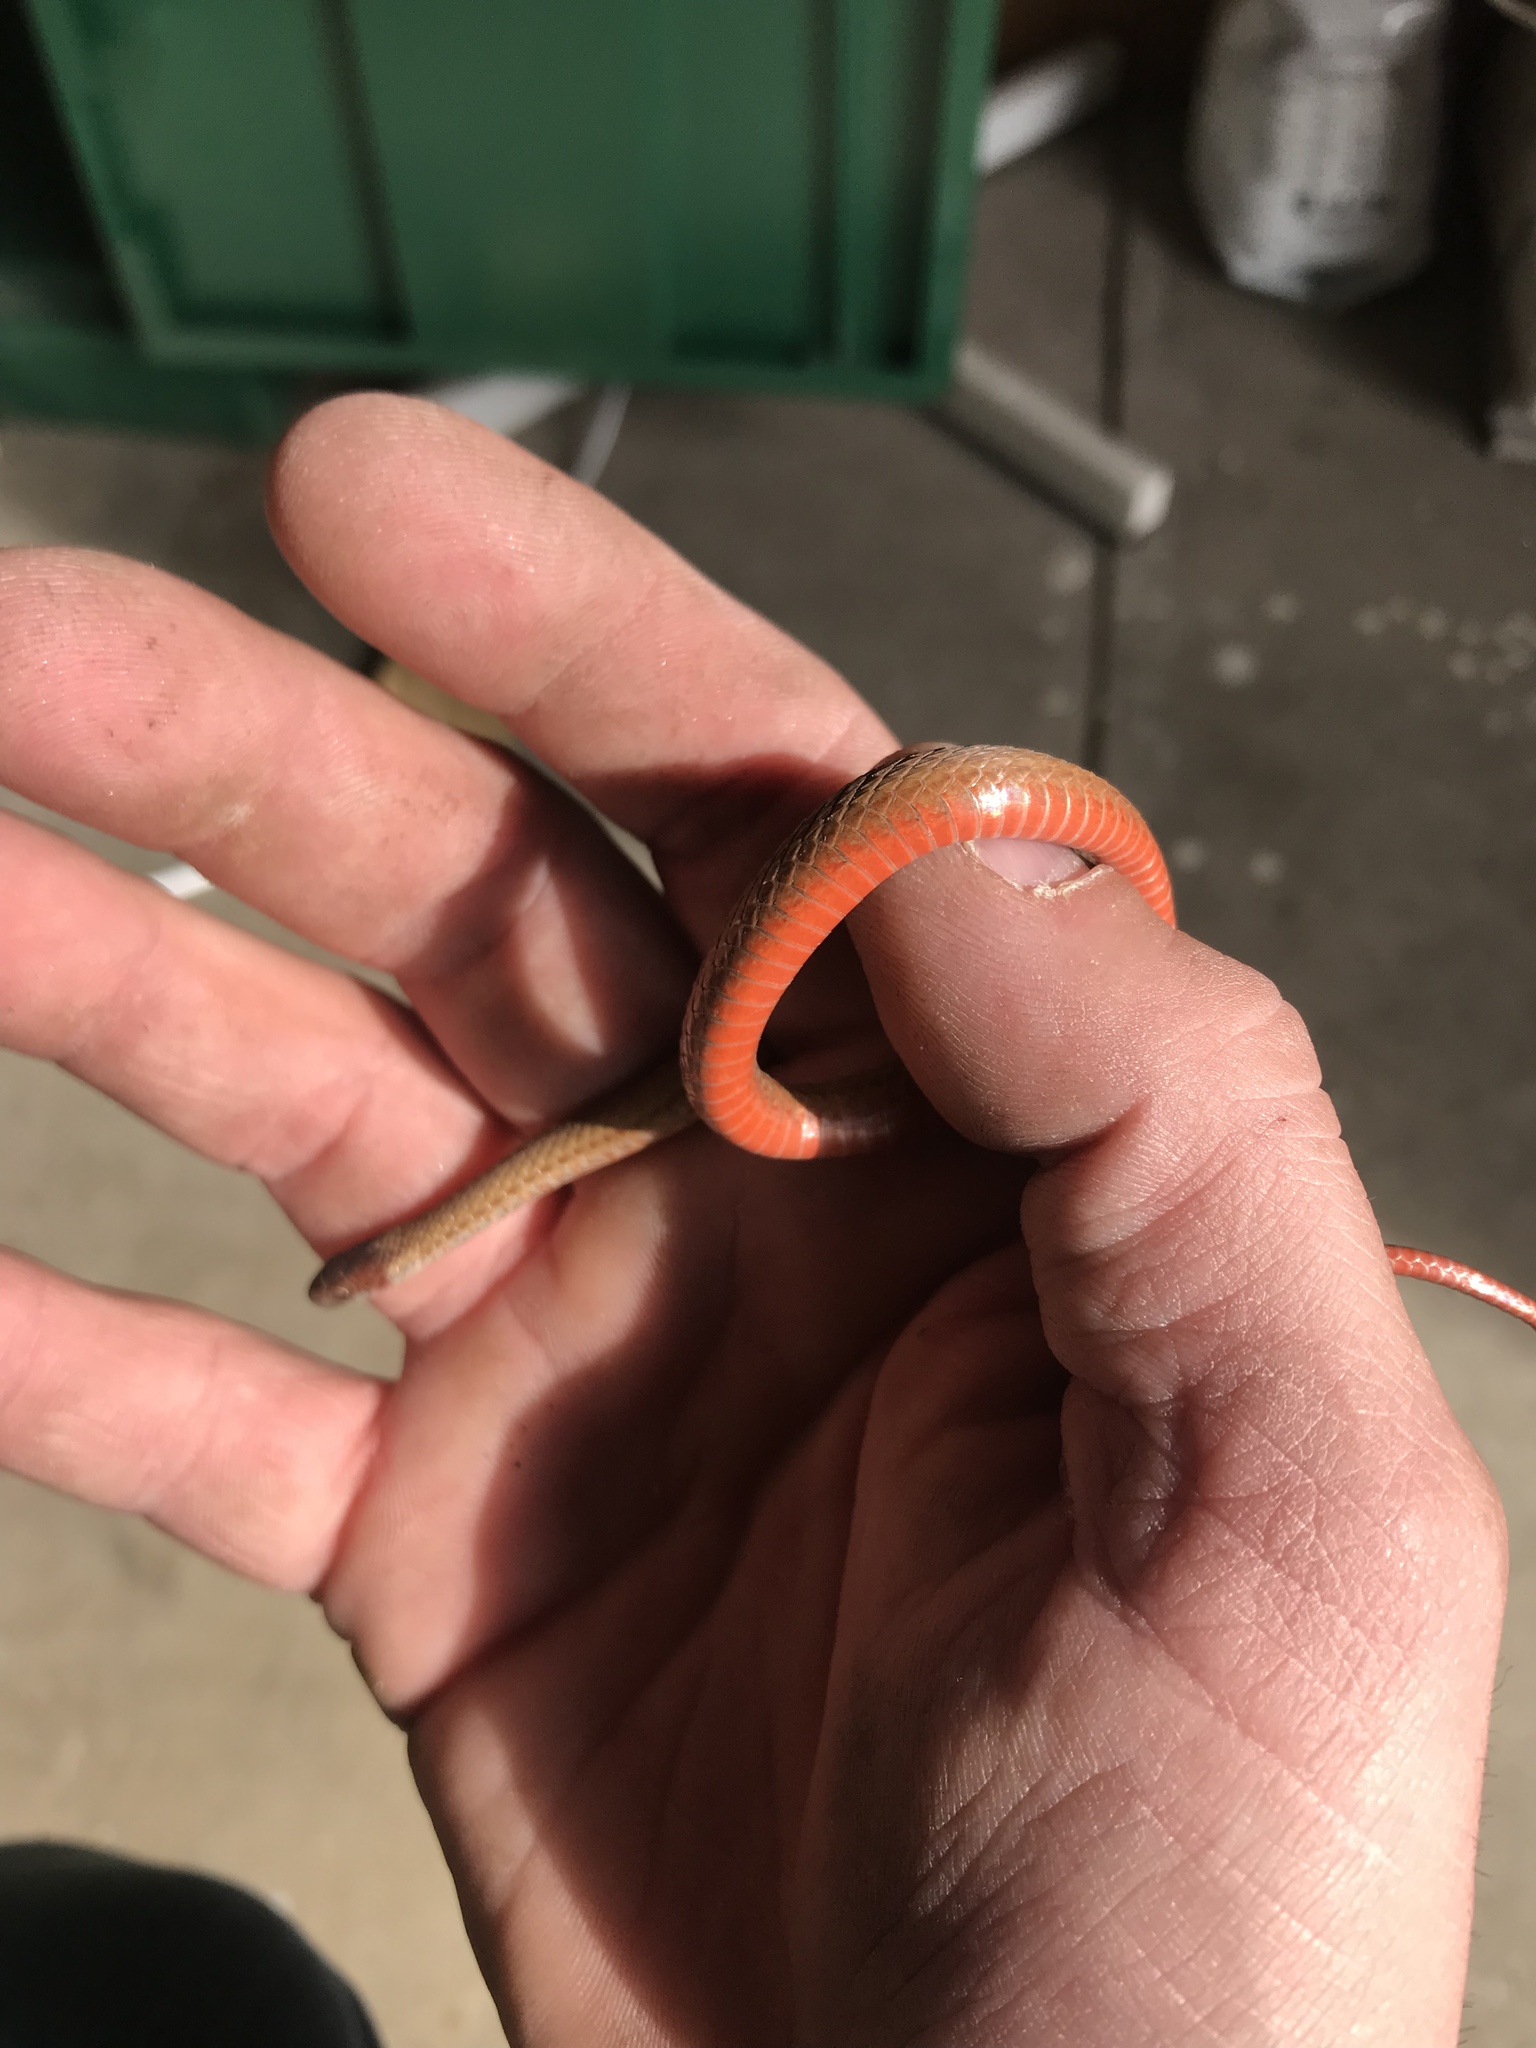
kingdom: Animalia
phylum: Chordata
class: Squamata
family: Colubridae
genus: Storeria
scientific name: Storeria occipitomaculata
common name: Redbelly snake
